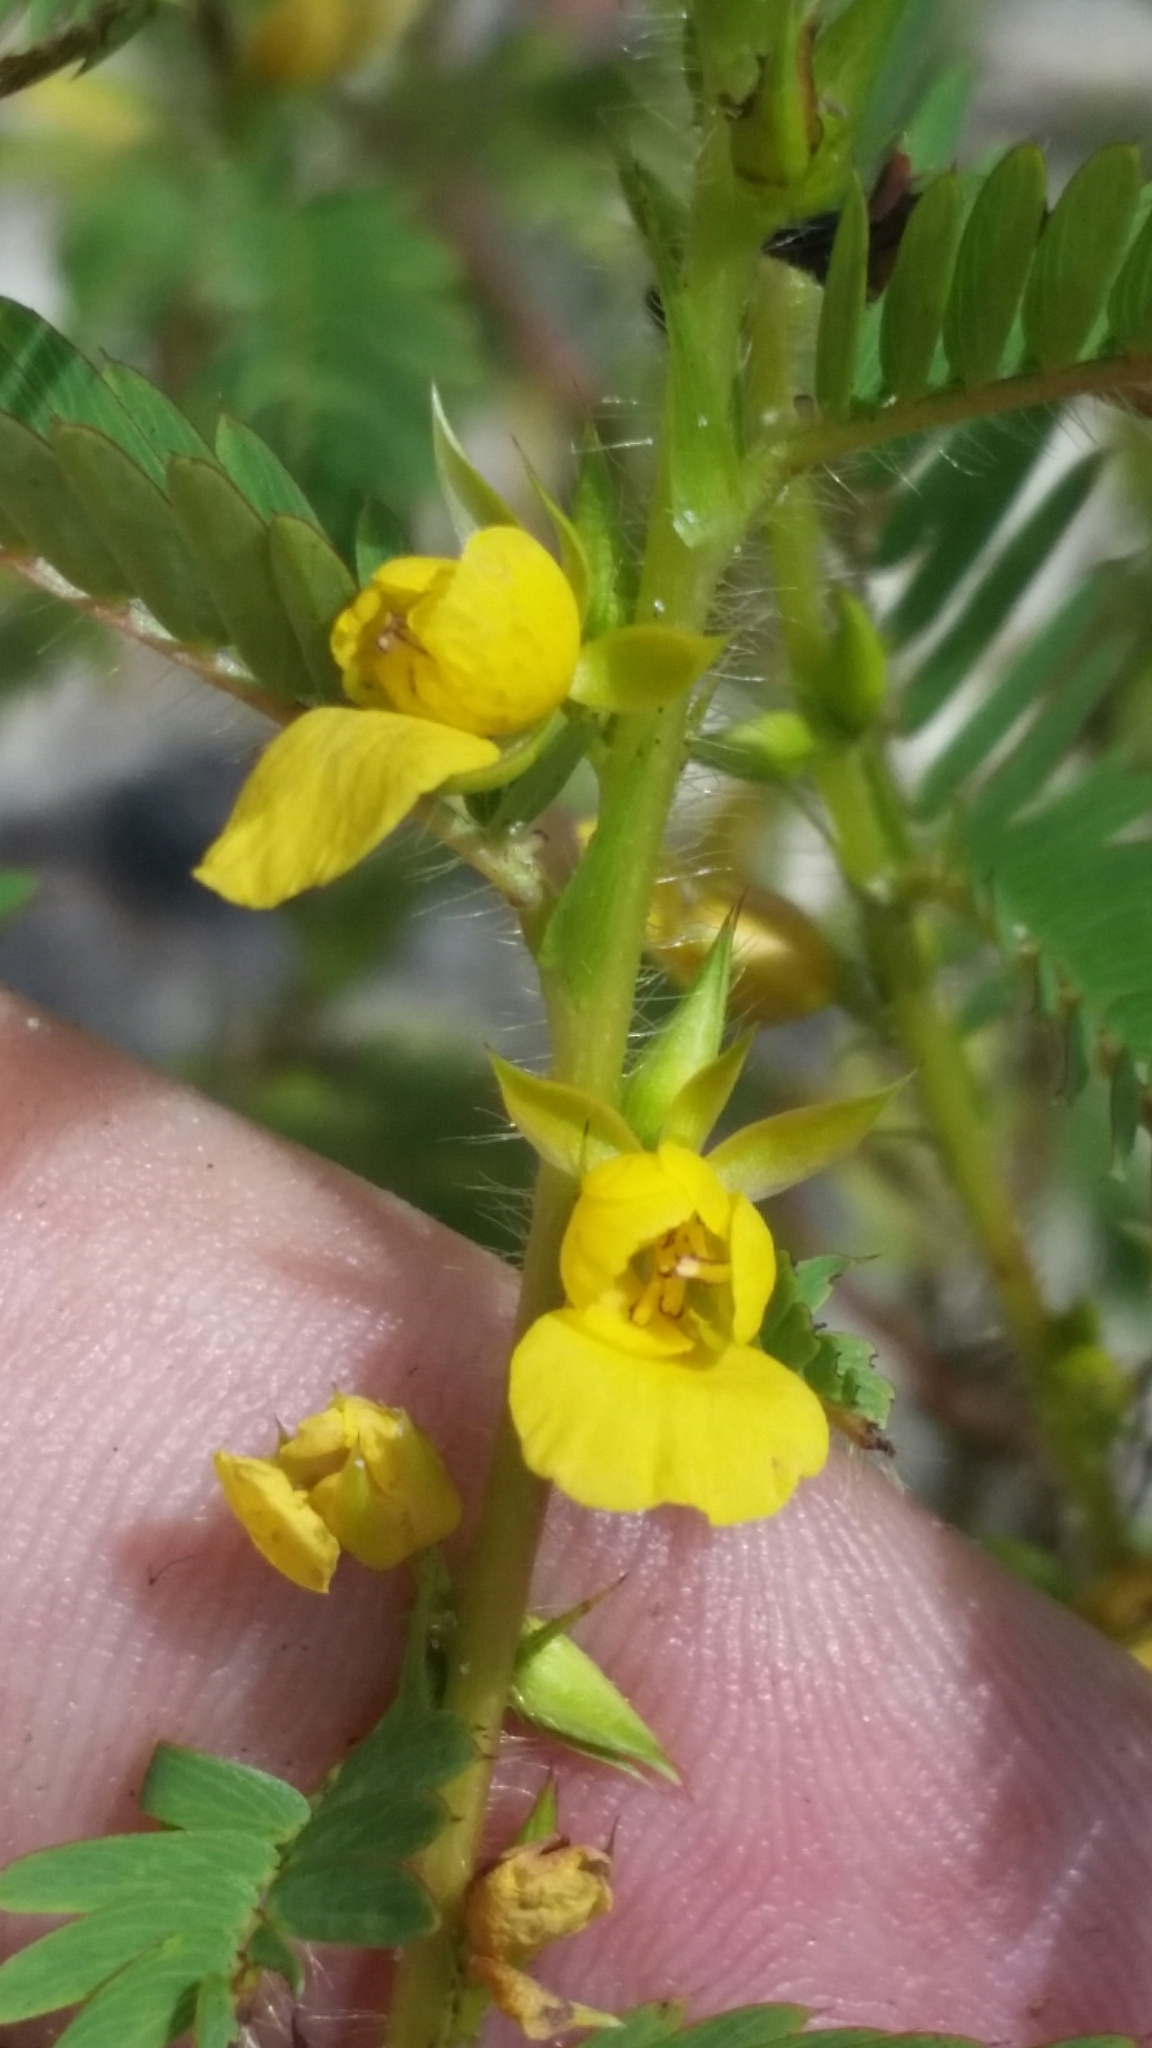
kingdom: Plantae
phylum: Tracheophyta
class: Magnoliopsida
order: Fabales
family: Fabaceae
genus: Chamaecrista
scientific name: Chamaecrista nictitans
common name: Sensitive cassia
